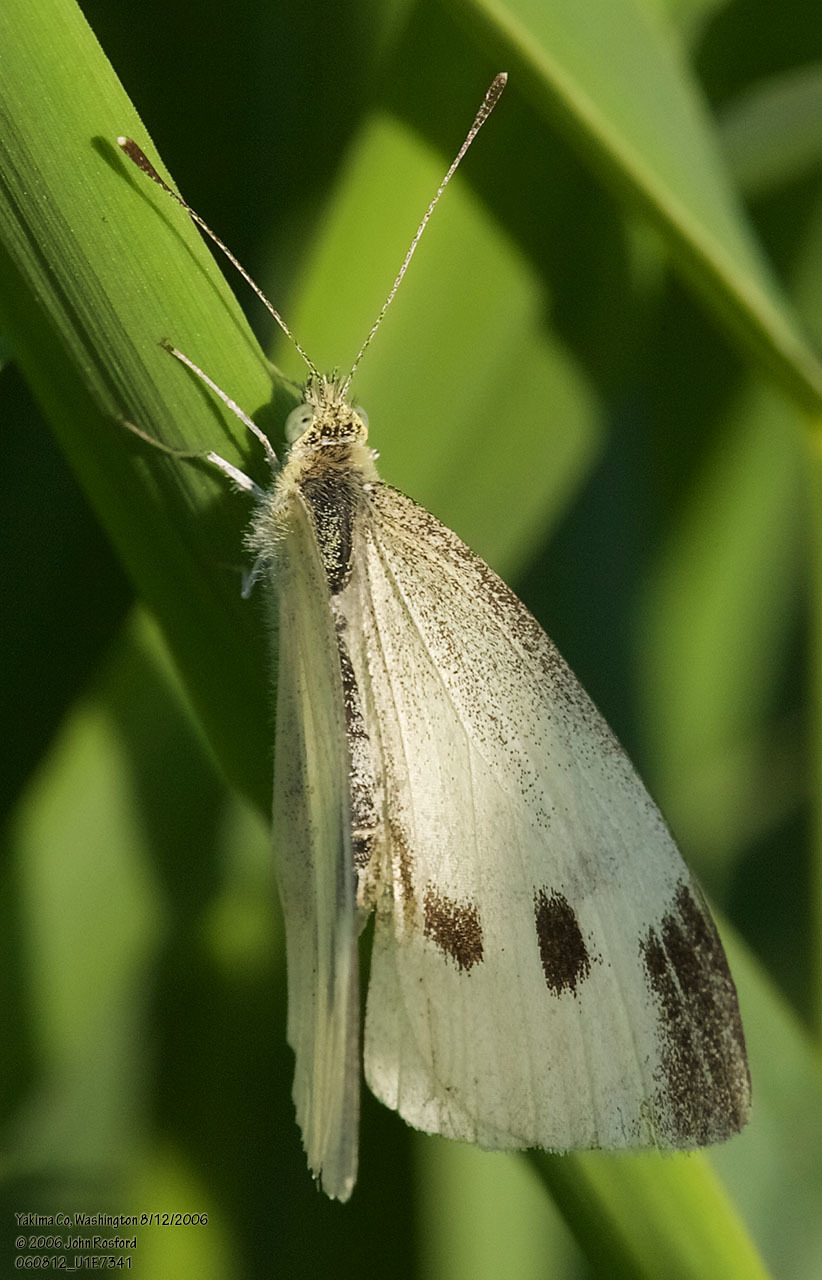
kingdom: Animalia
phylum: Arthropoda
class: Insecta
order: Lepidoptera
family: Pieridae
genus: Pieris
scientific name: Pieris rapae
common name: Small white
